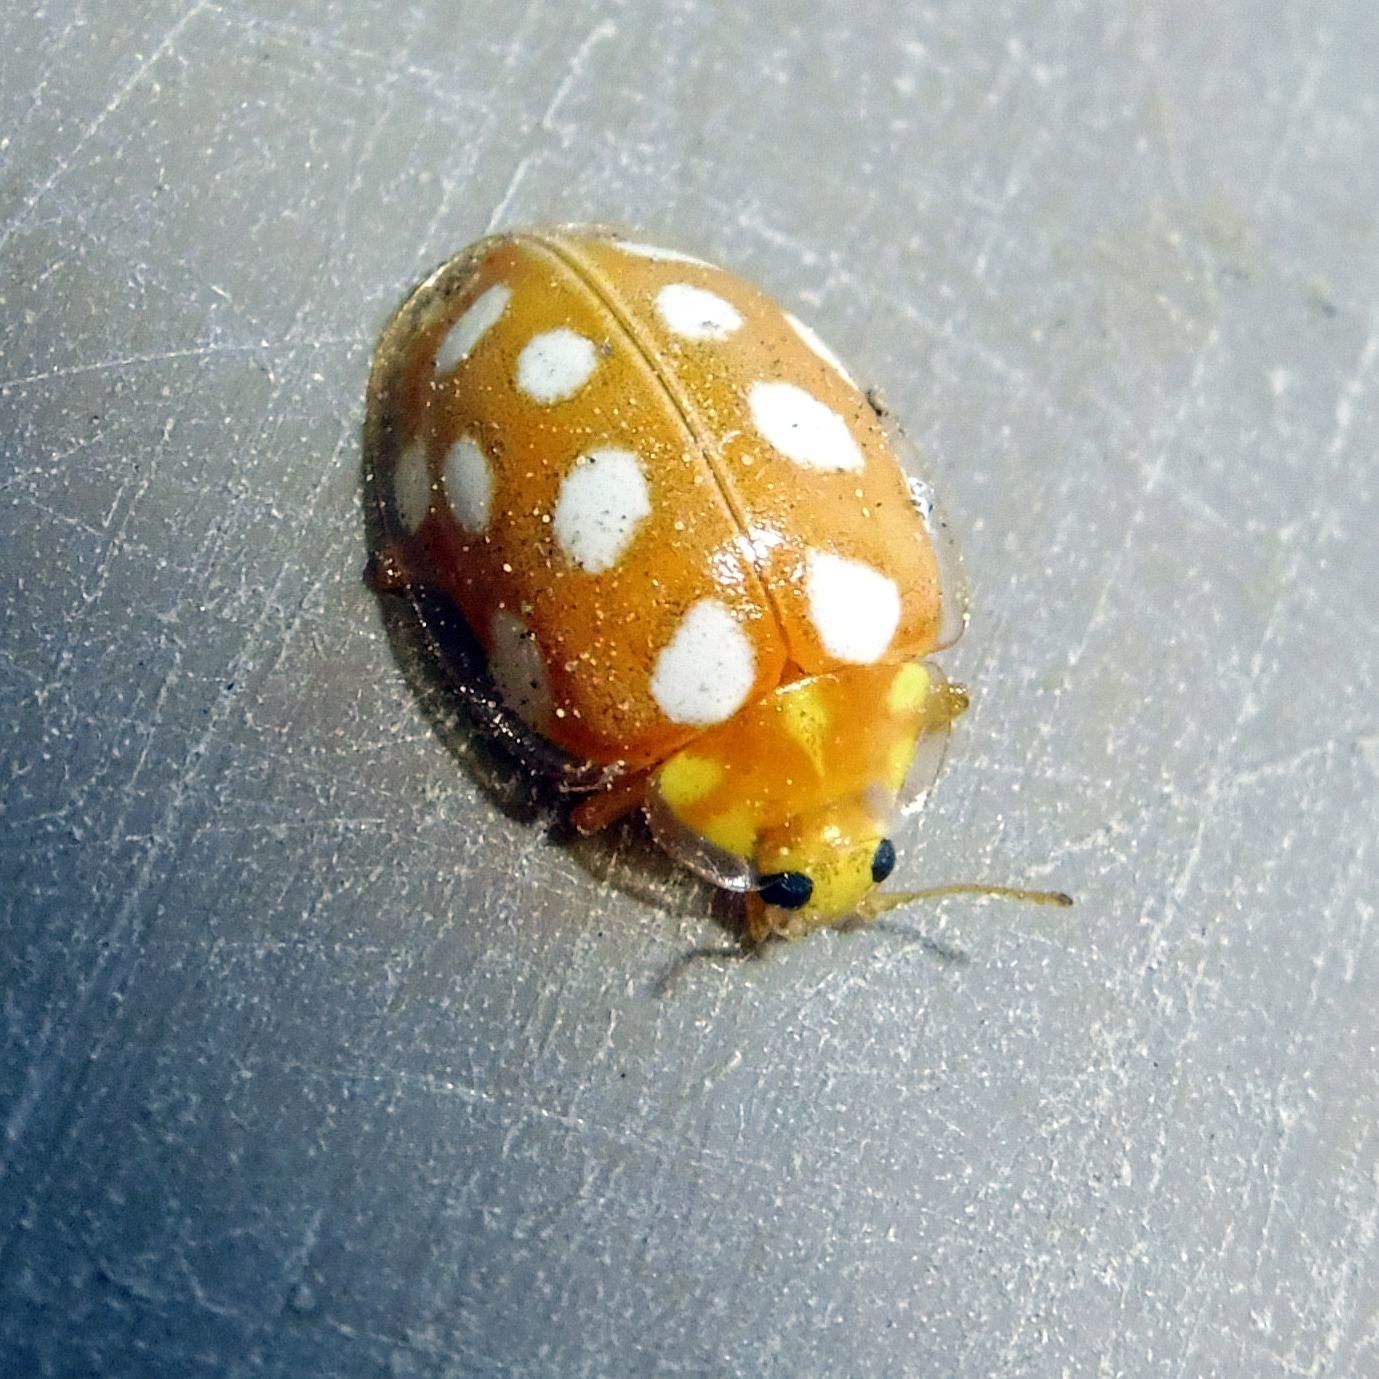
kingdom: Animalia
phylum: Arthropoda
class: Insecta
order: Coleoptera
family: Coccinellidae
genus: Halyzia
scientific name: Halyzia sedecimguttata
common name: Orange ladybird
